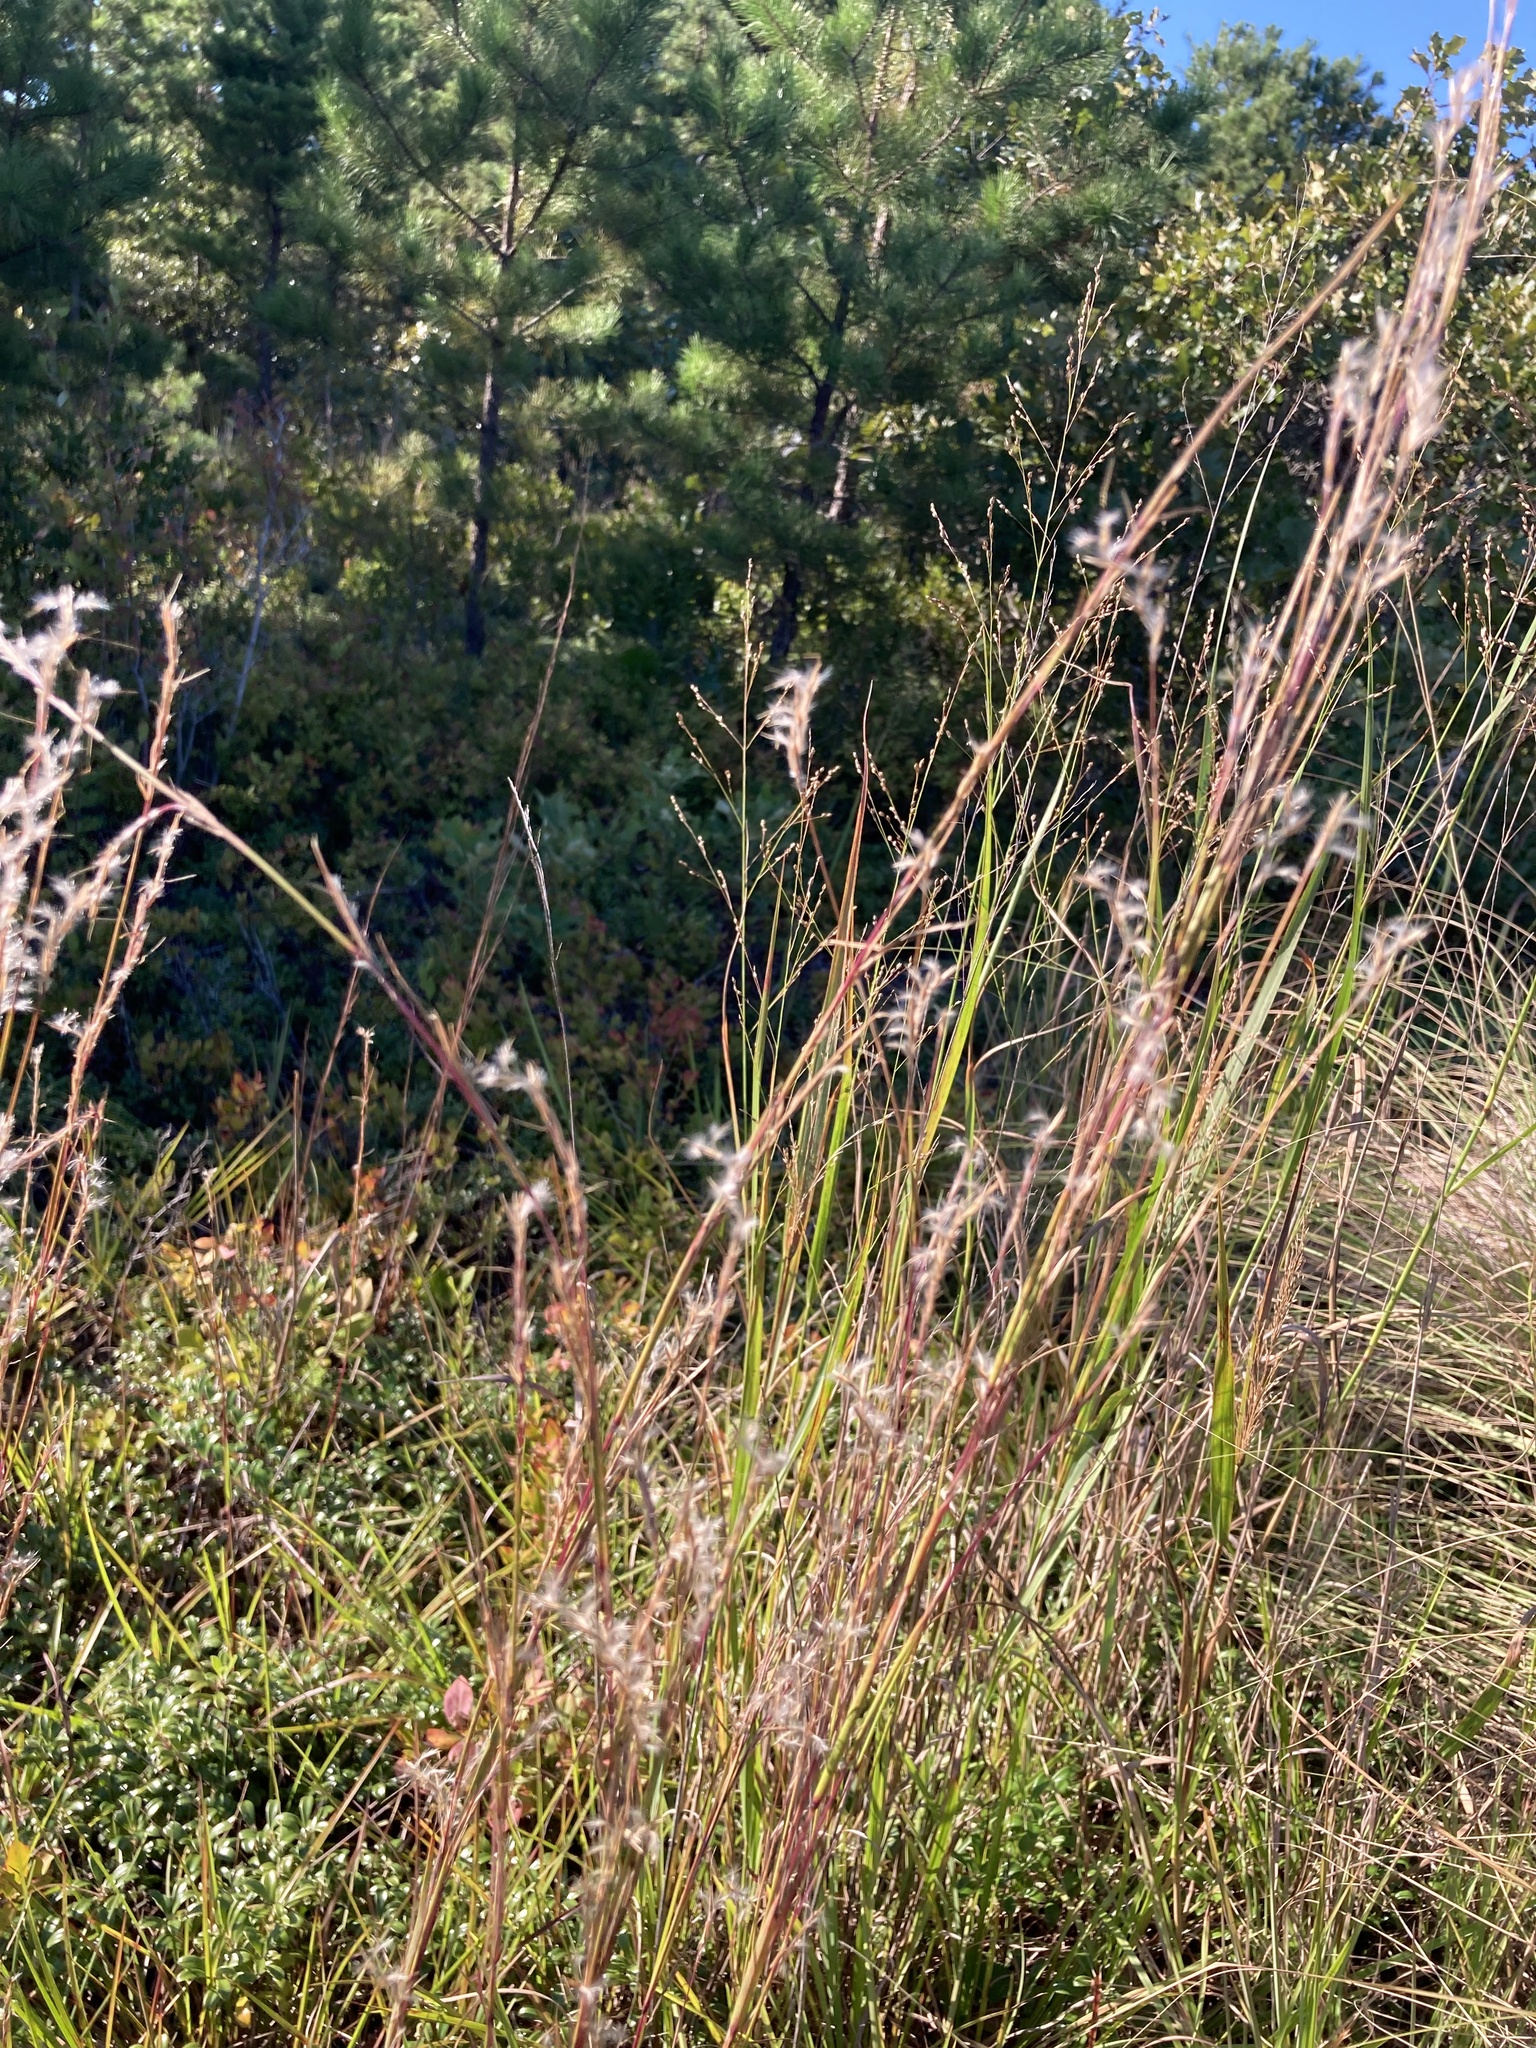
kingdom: Plantae
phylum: Tracheophyta
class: Liliopsida
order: Poales
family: Poaceae
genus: Schizachyrium
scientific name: Schizachyrium scoparium
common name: Little bluestem
